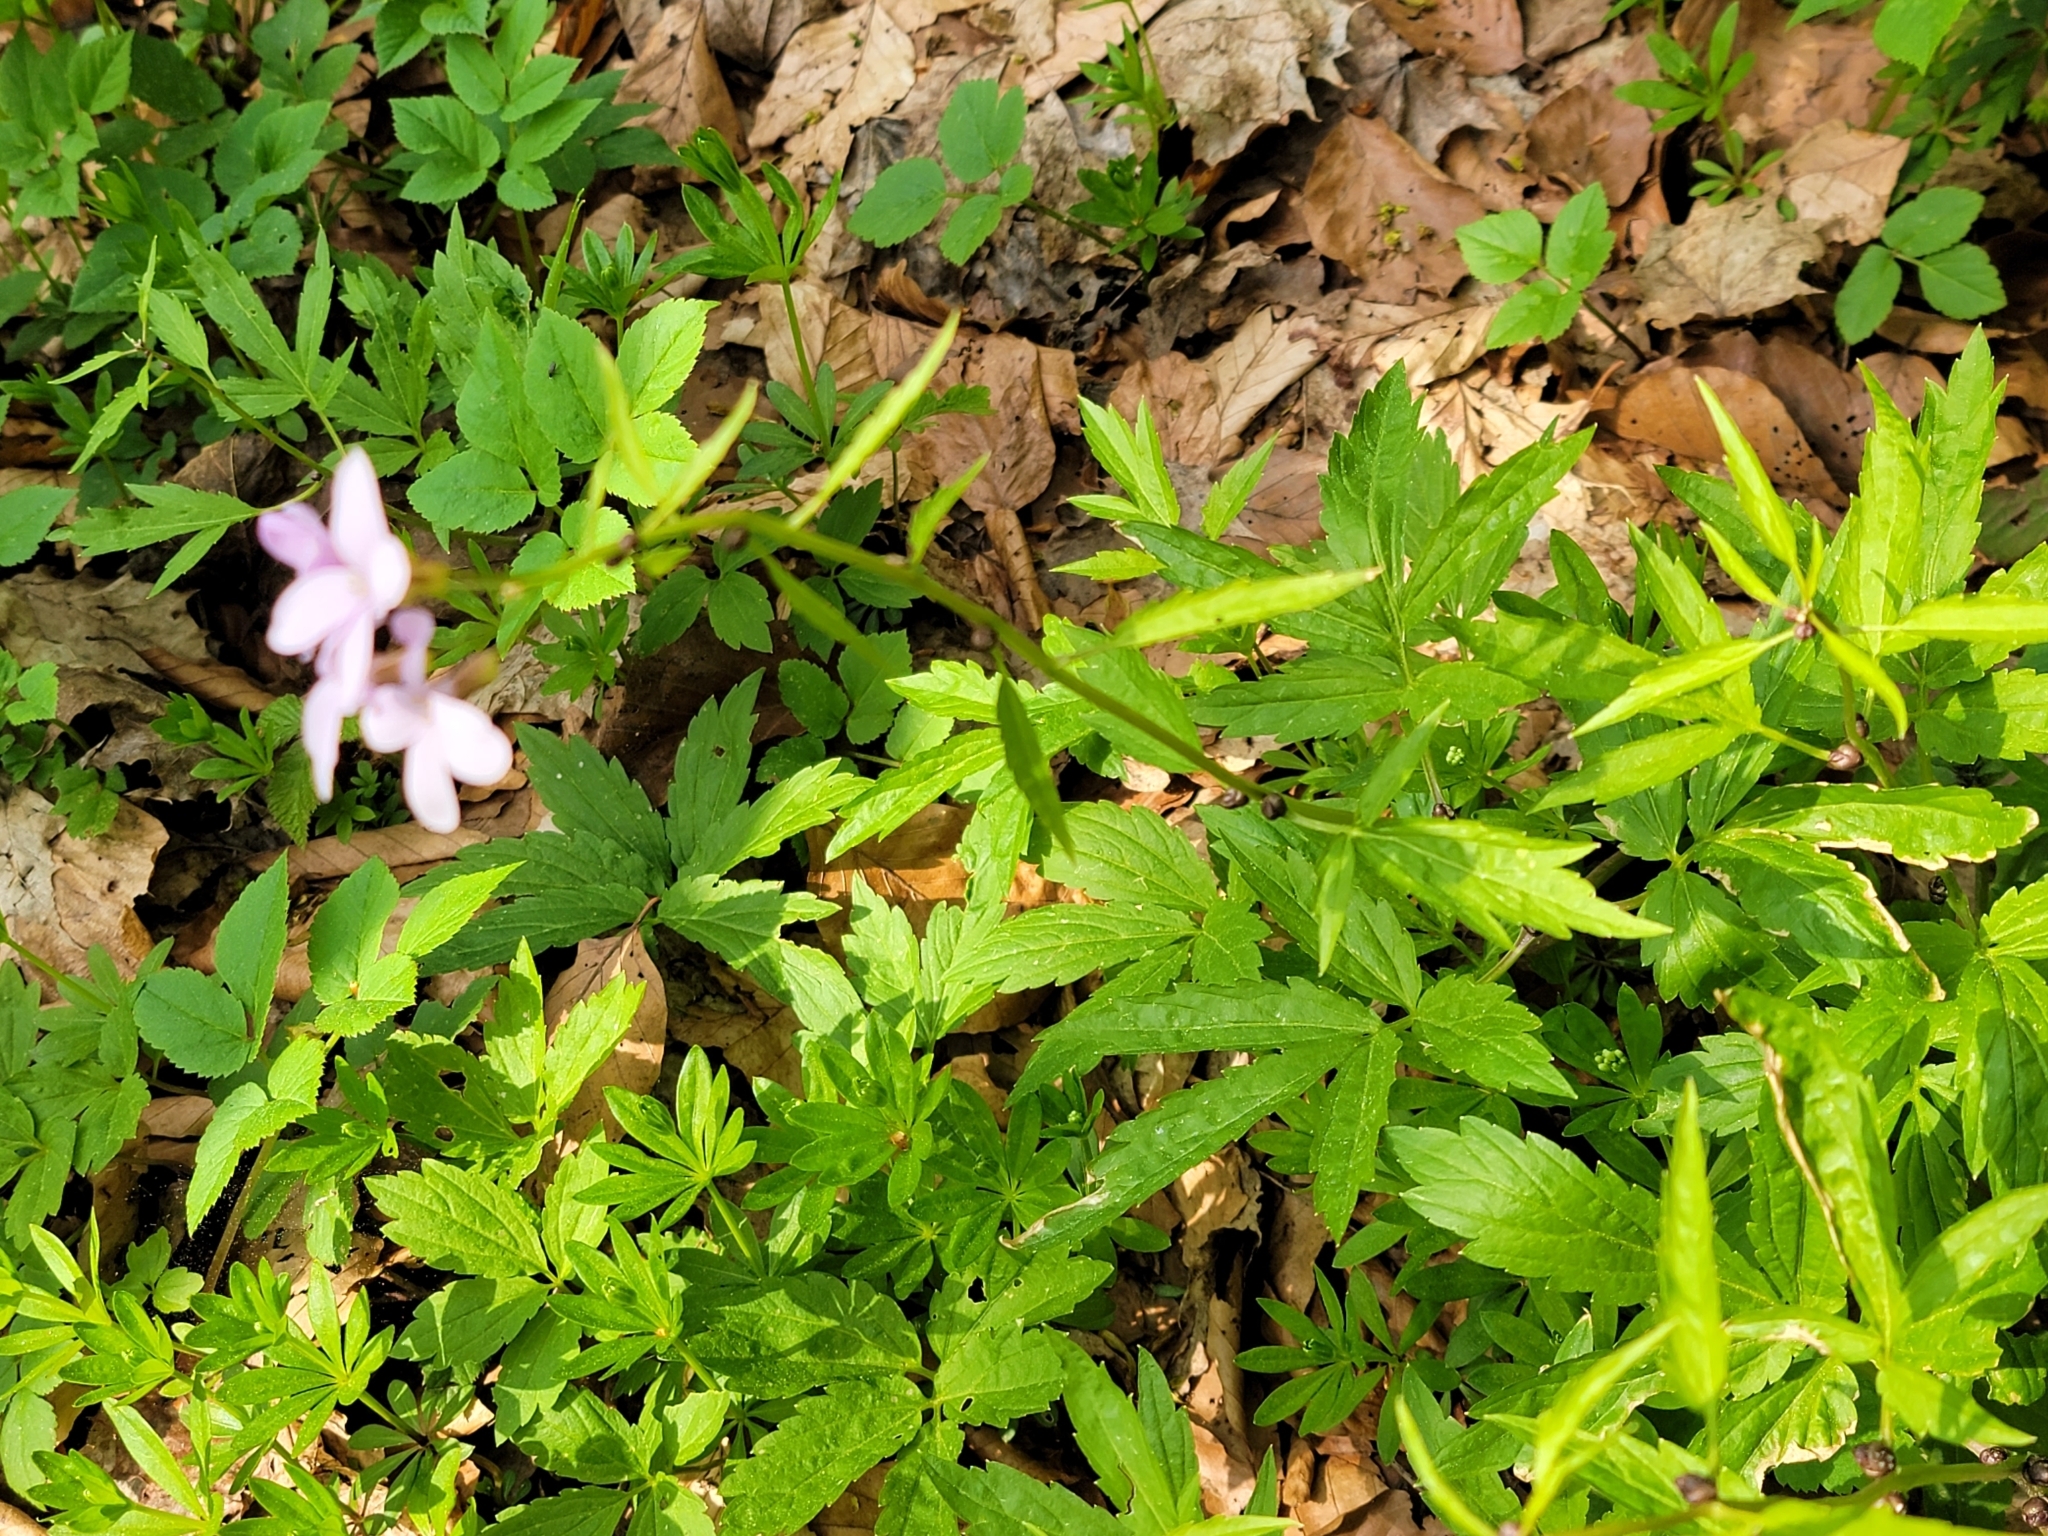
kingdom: Plantae
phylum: Tracheophyta
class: Magnoliopsida
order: Brassicales
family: Brassicaceae
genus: Cardamine
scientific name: Cardamine bulbifera
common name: Coralroot bittercress
